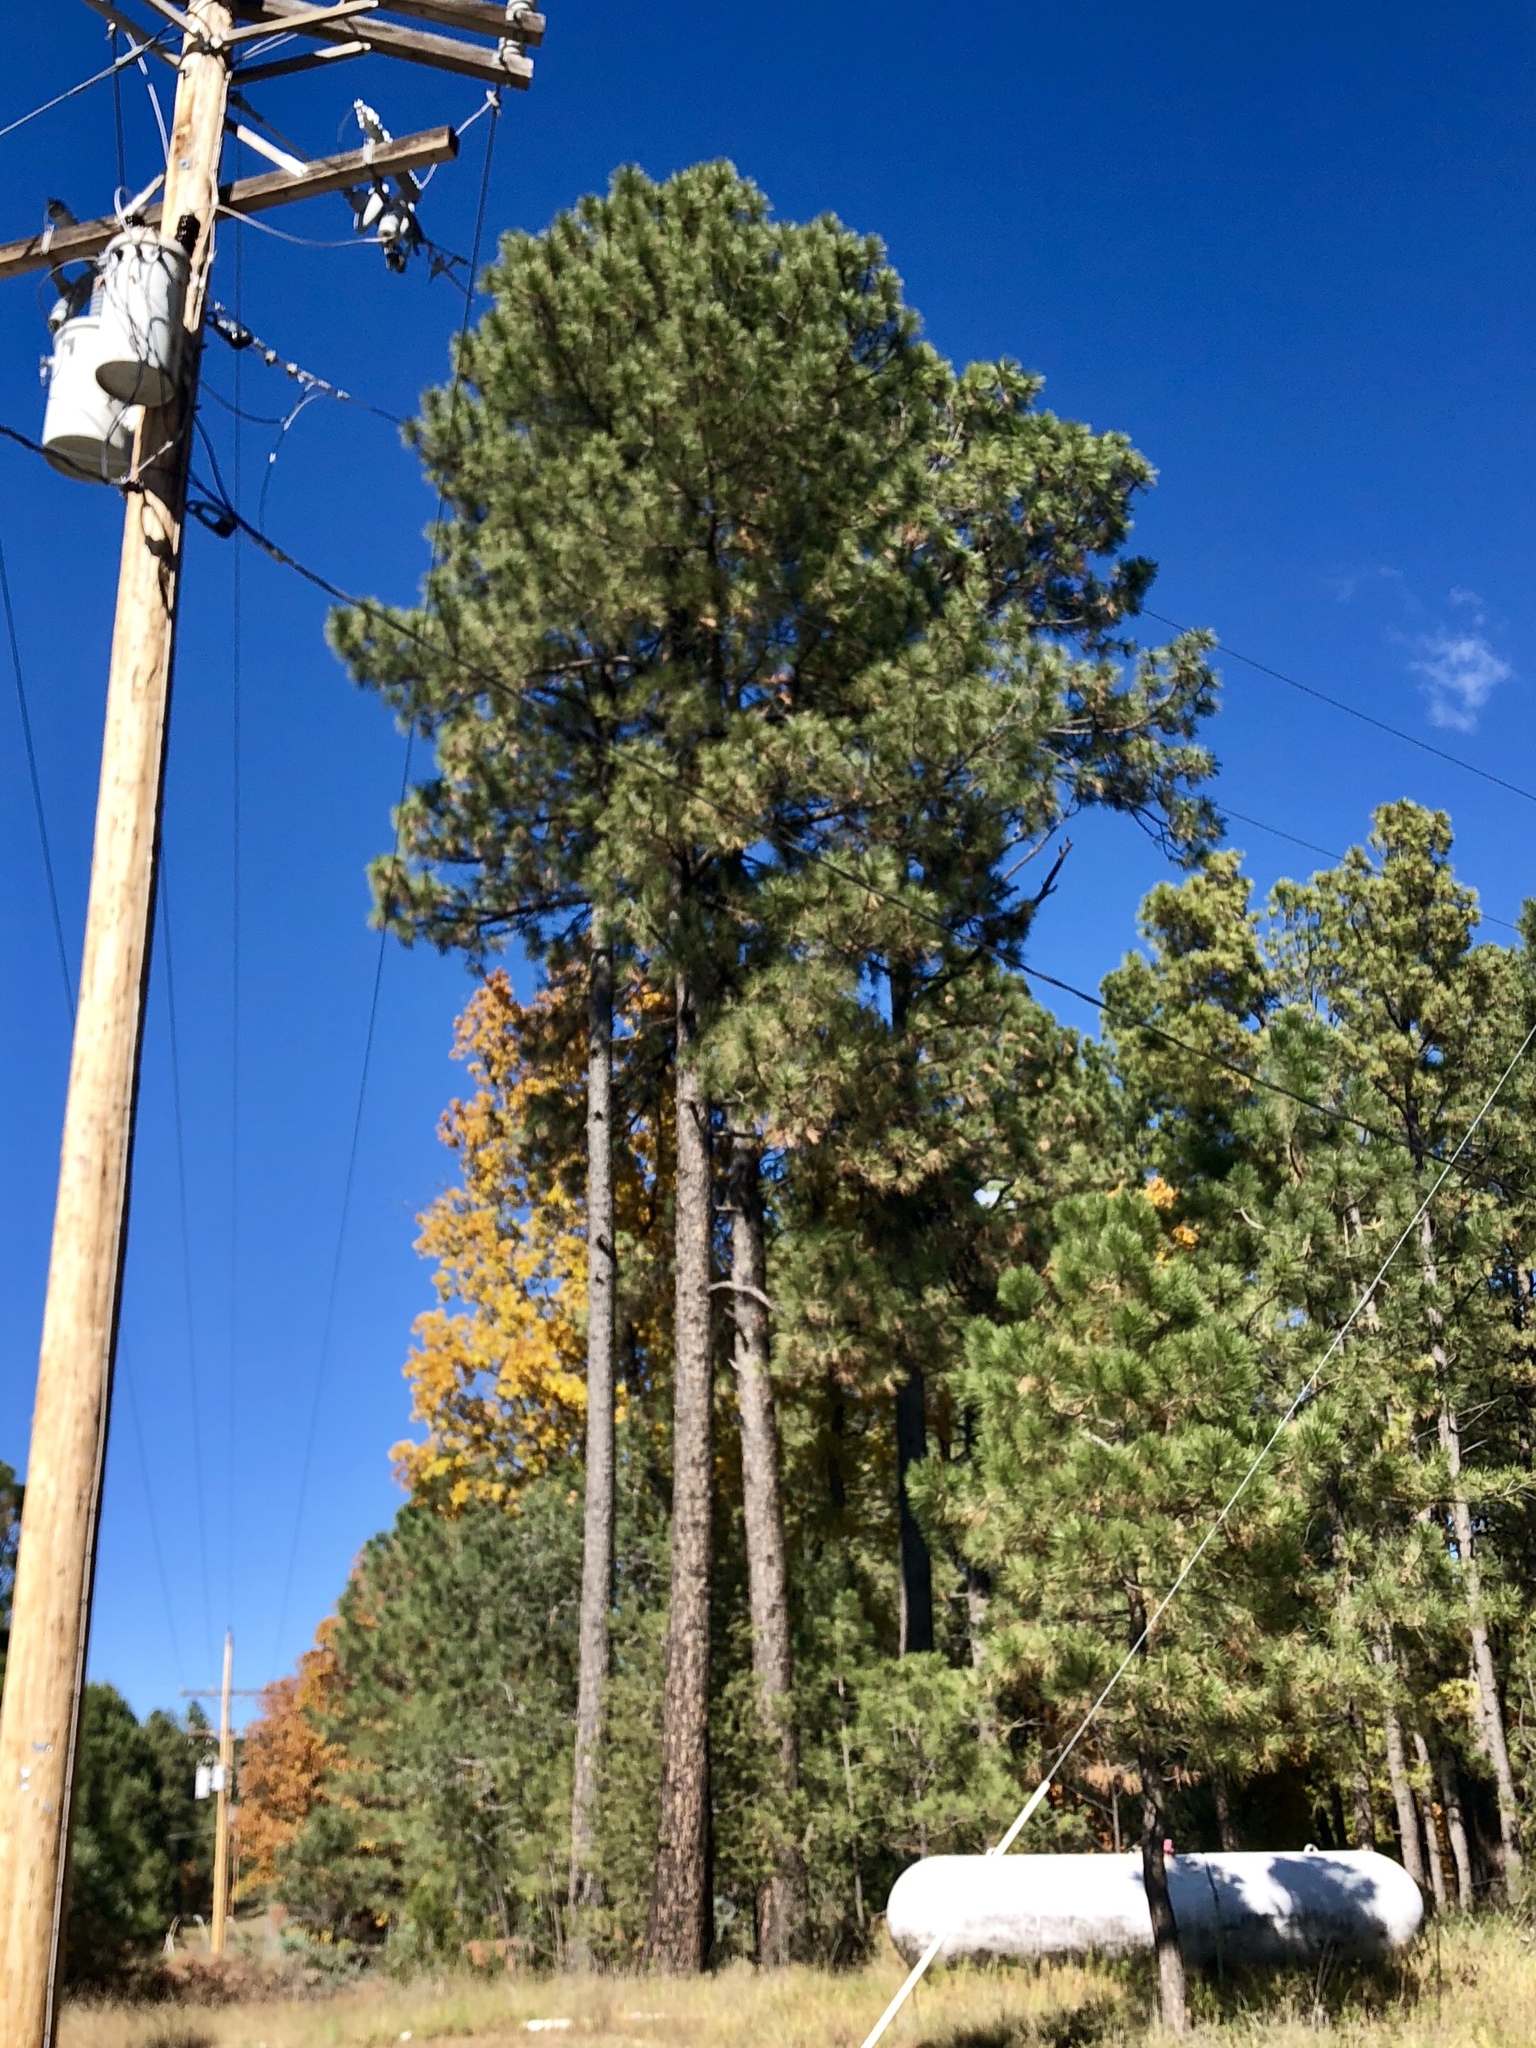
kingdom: Plantae
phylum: Tracheophyta
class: Pinopsida
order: Pinales
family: Pinaceae
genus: Pinus
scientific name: Pinus ponderosa
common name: Western yellow-pine
